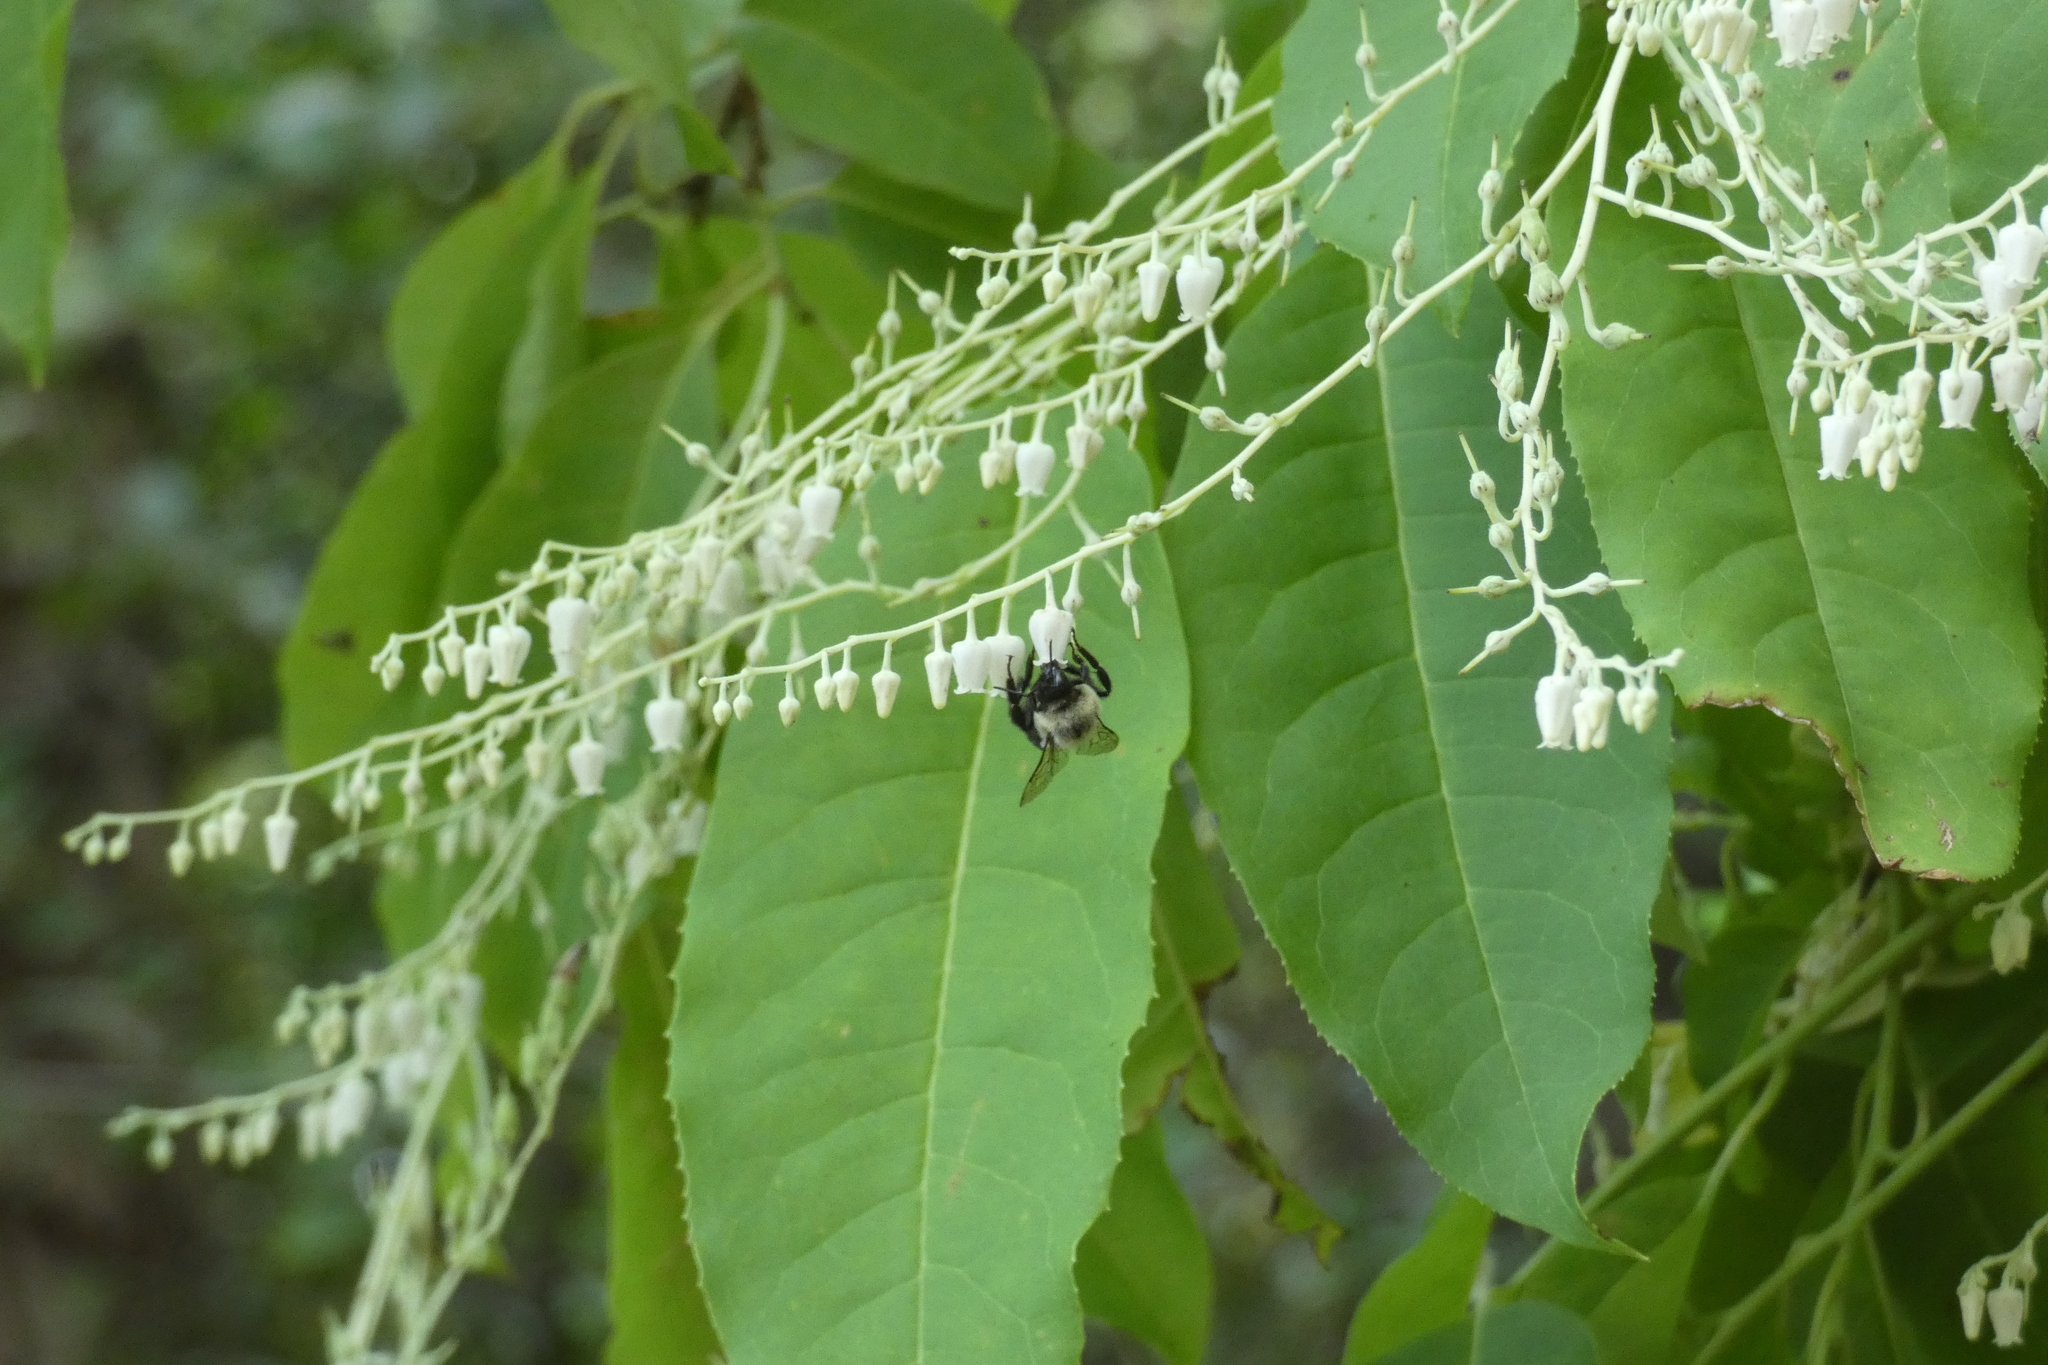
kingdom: Animalia
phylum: Arthropoda
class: Insecta
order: Hymenoptera
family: Apidae
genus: Bombus
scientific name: Bombus impatiens
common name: Common eastern bumble bee
